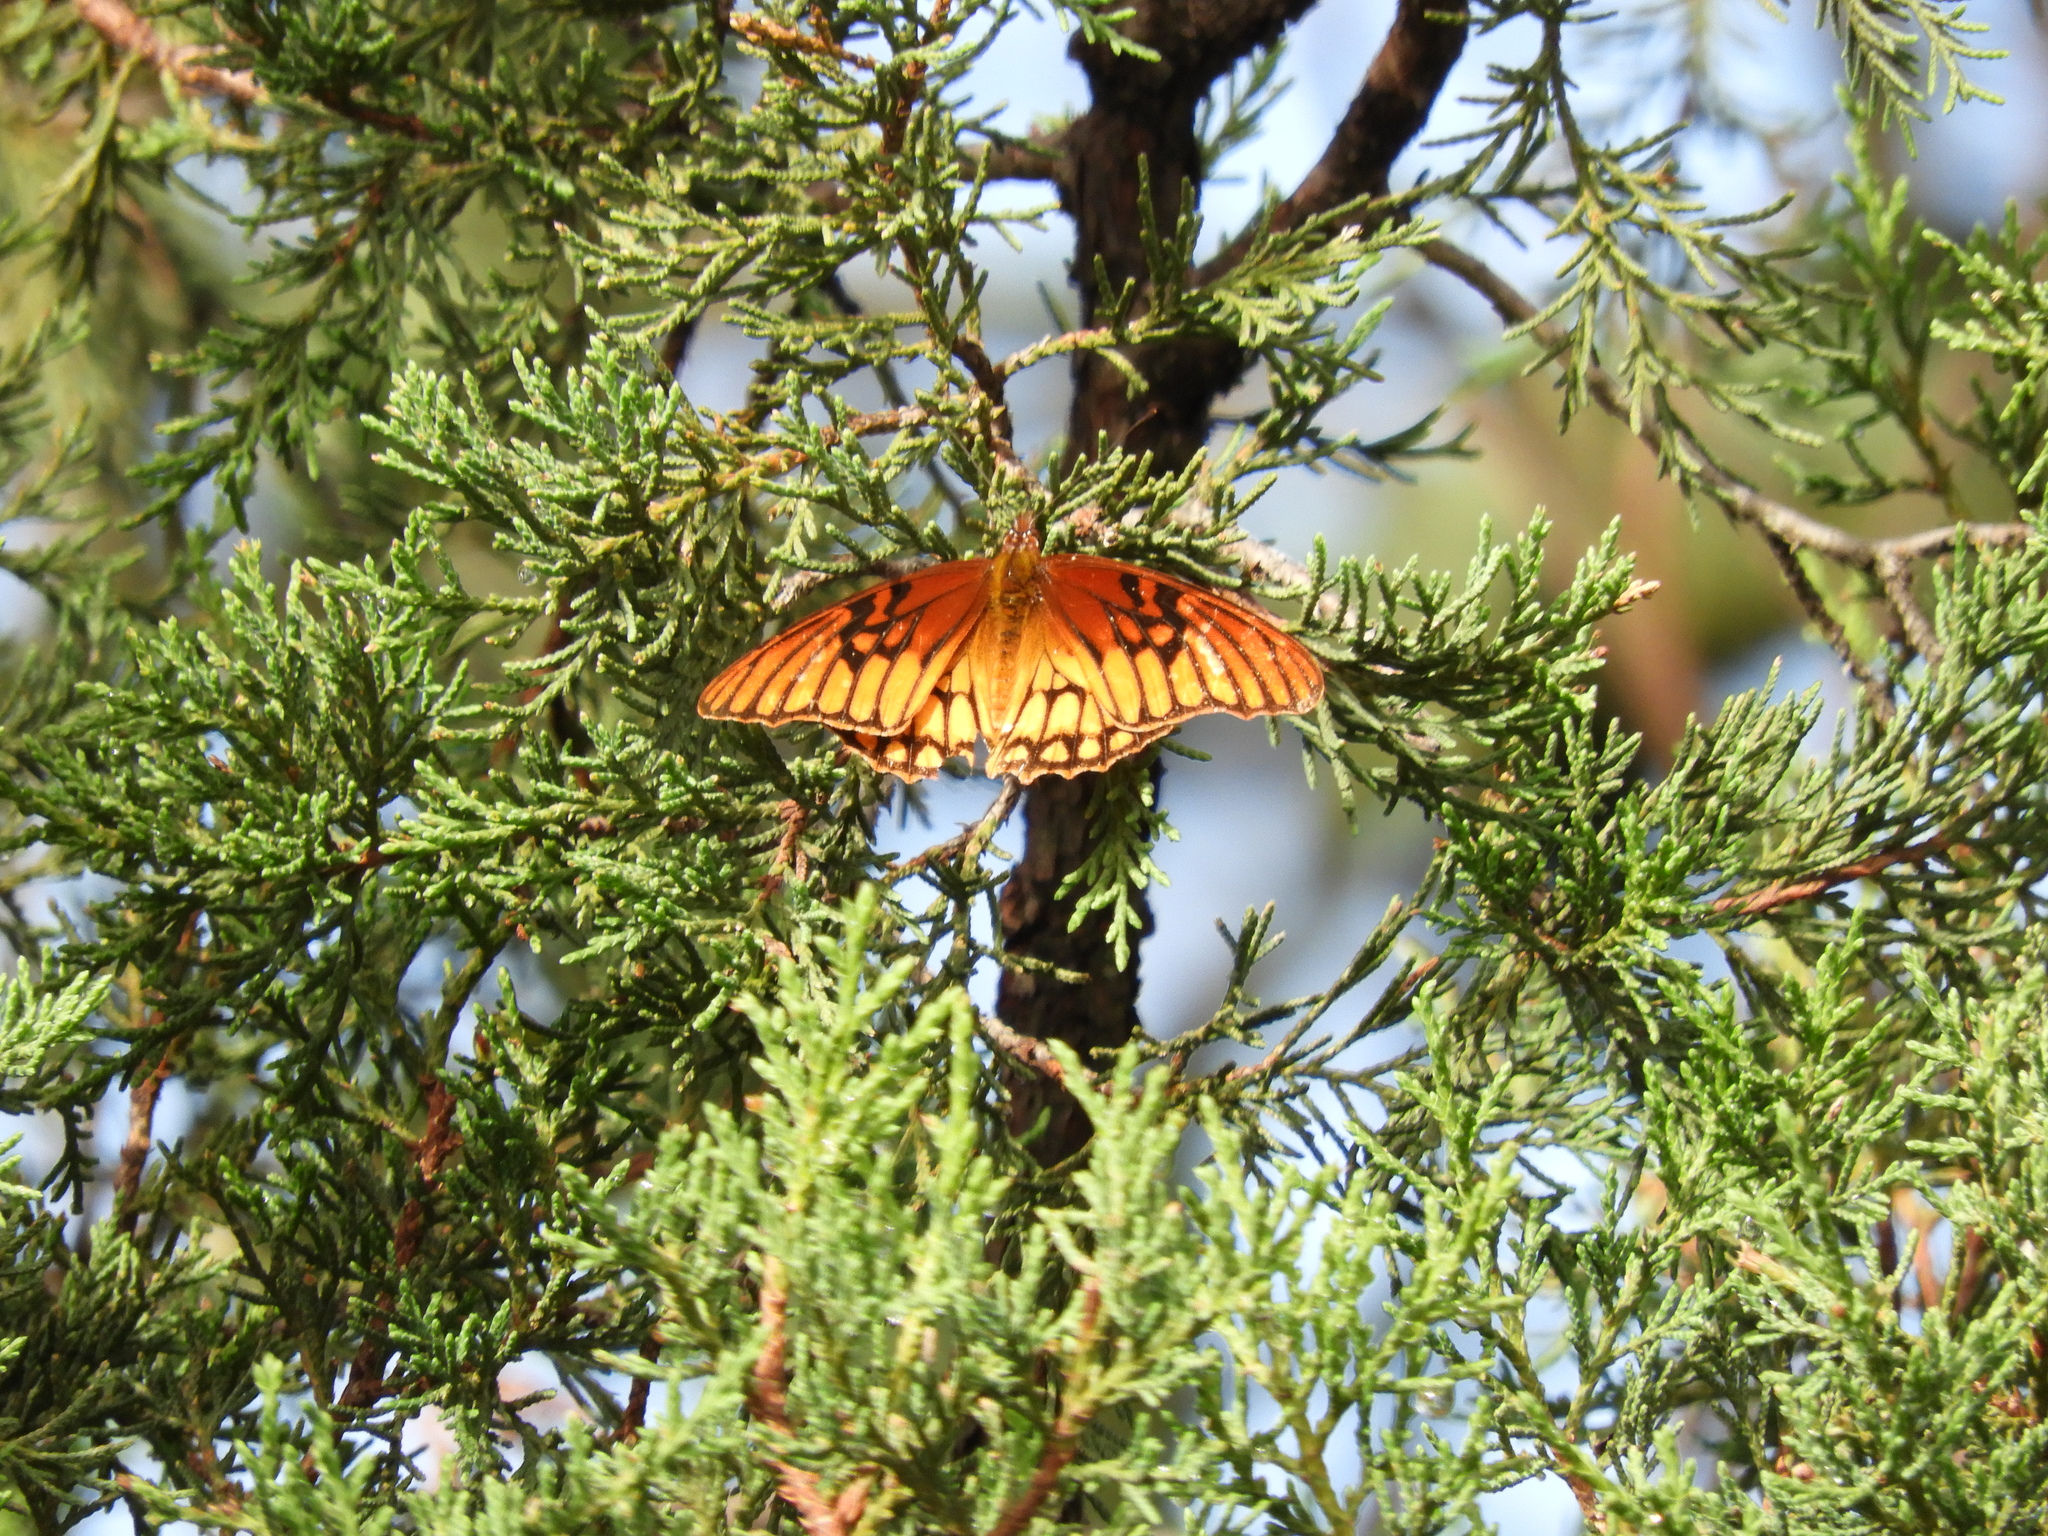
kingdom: Animalia
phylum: Arthropoda
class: Insecta
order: Lepidoptera
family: Nymphalidae
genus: Dione
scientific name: Dione moneta
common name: Mexican silverspot
